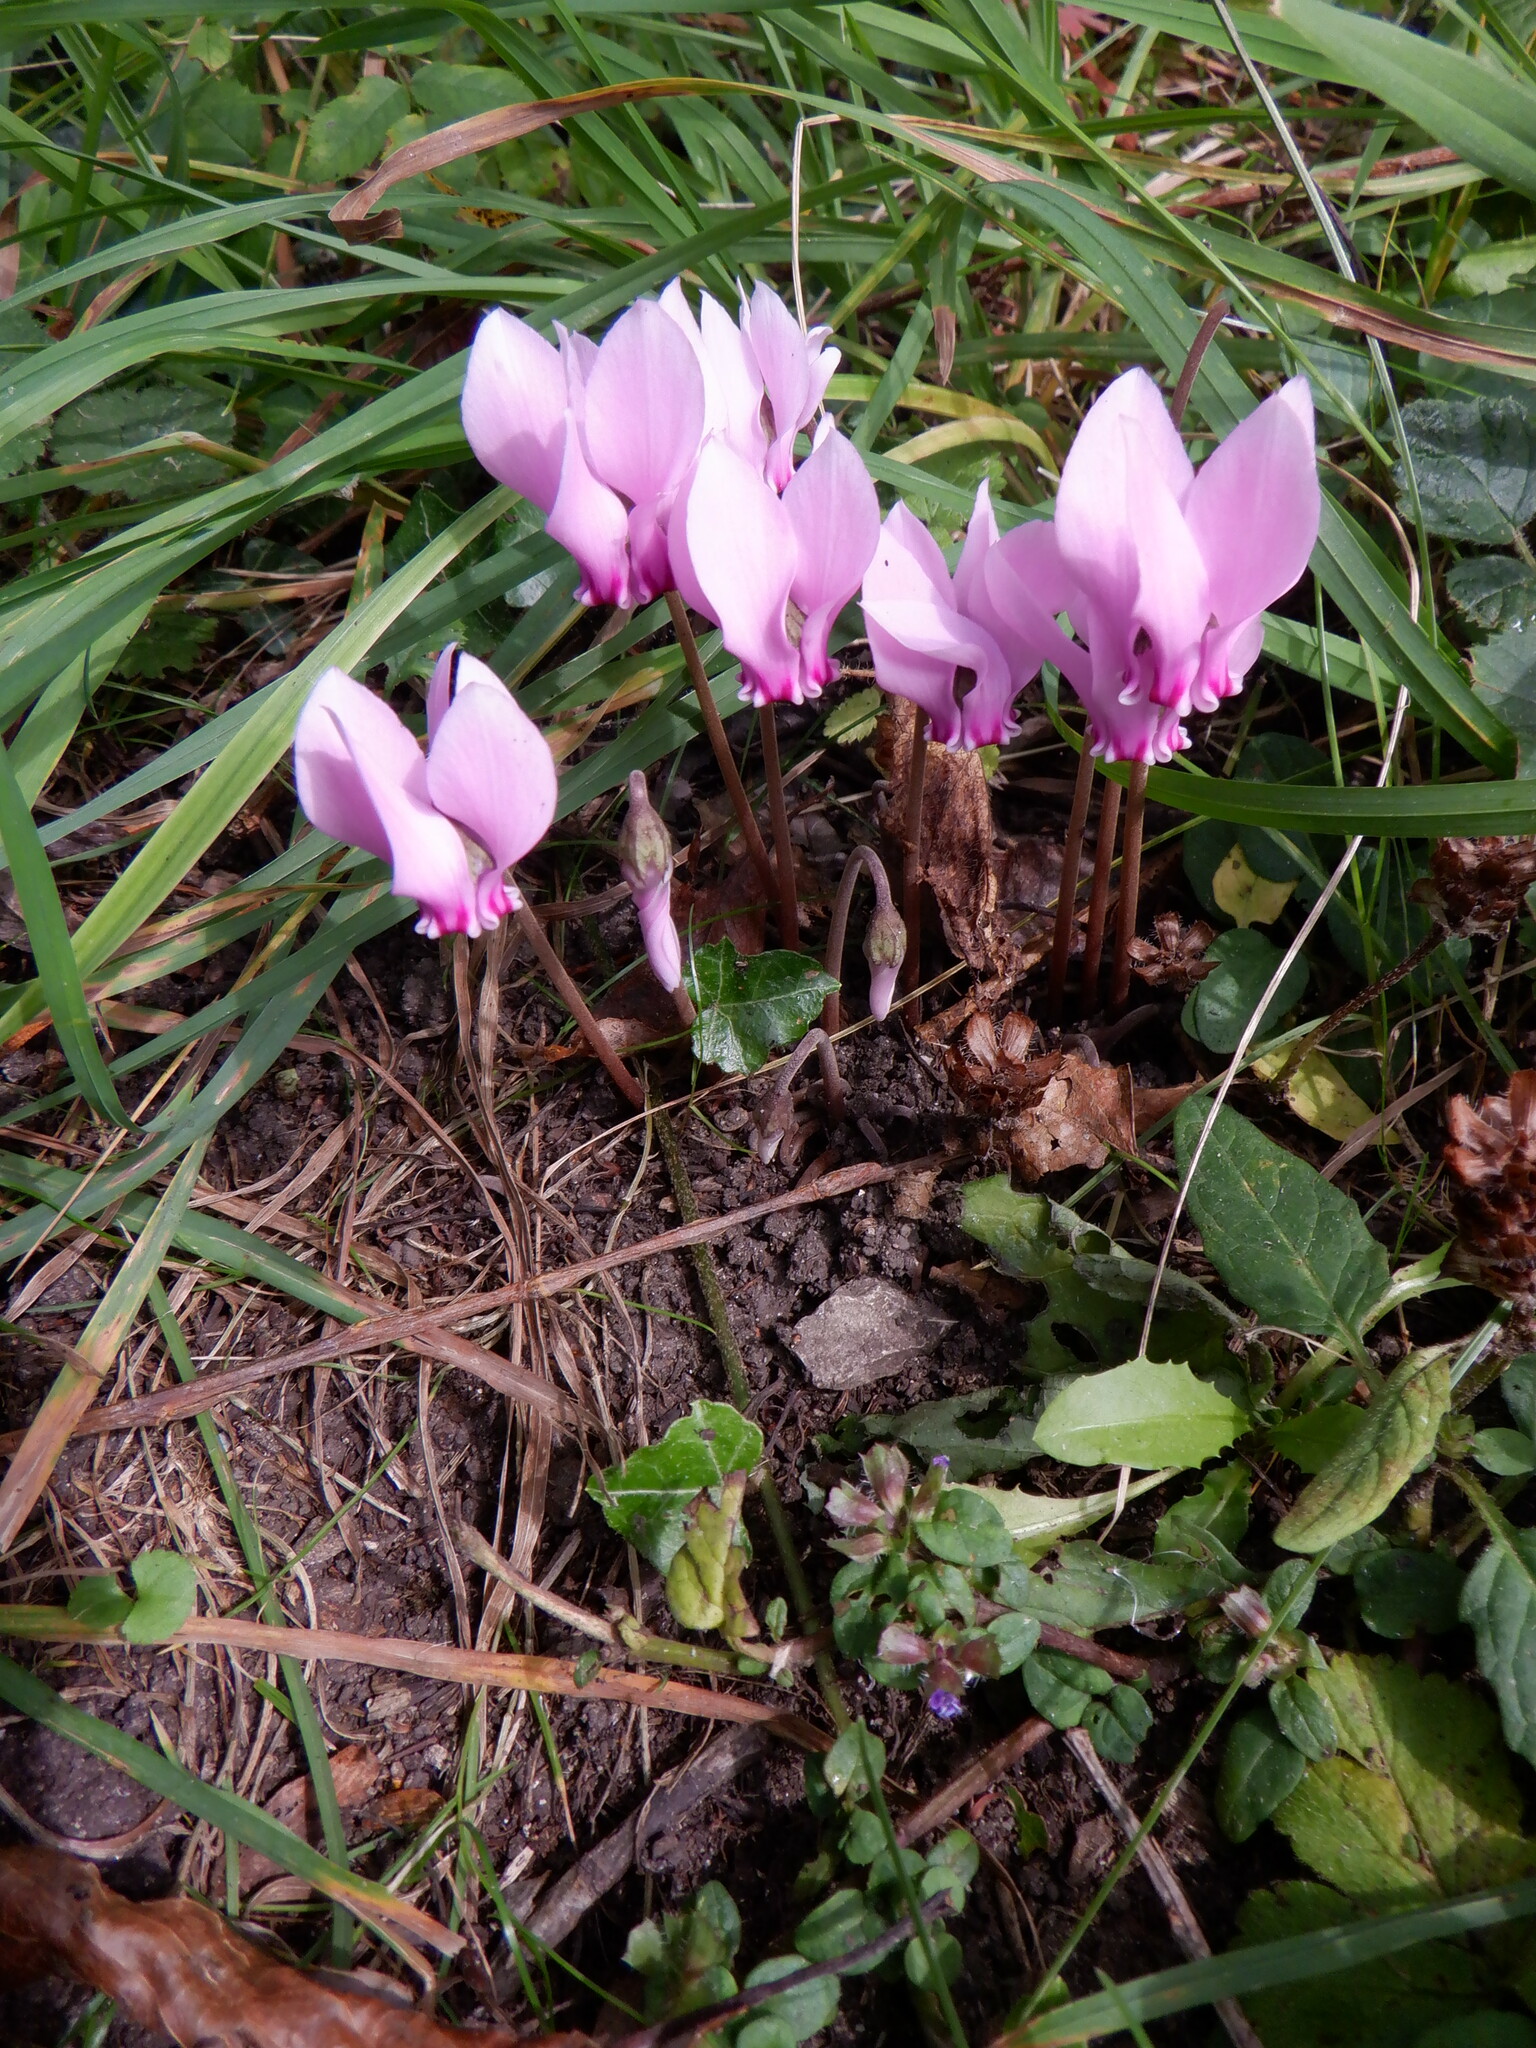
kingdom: Plantae
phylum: Tracheophyta
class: Magnoliopsida
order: Ericales
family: Primulaceae
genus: Cyclamen
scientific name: Cyclamen hederifolium
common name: Sowbread
